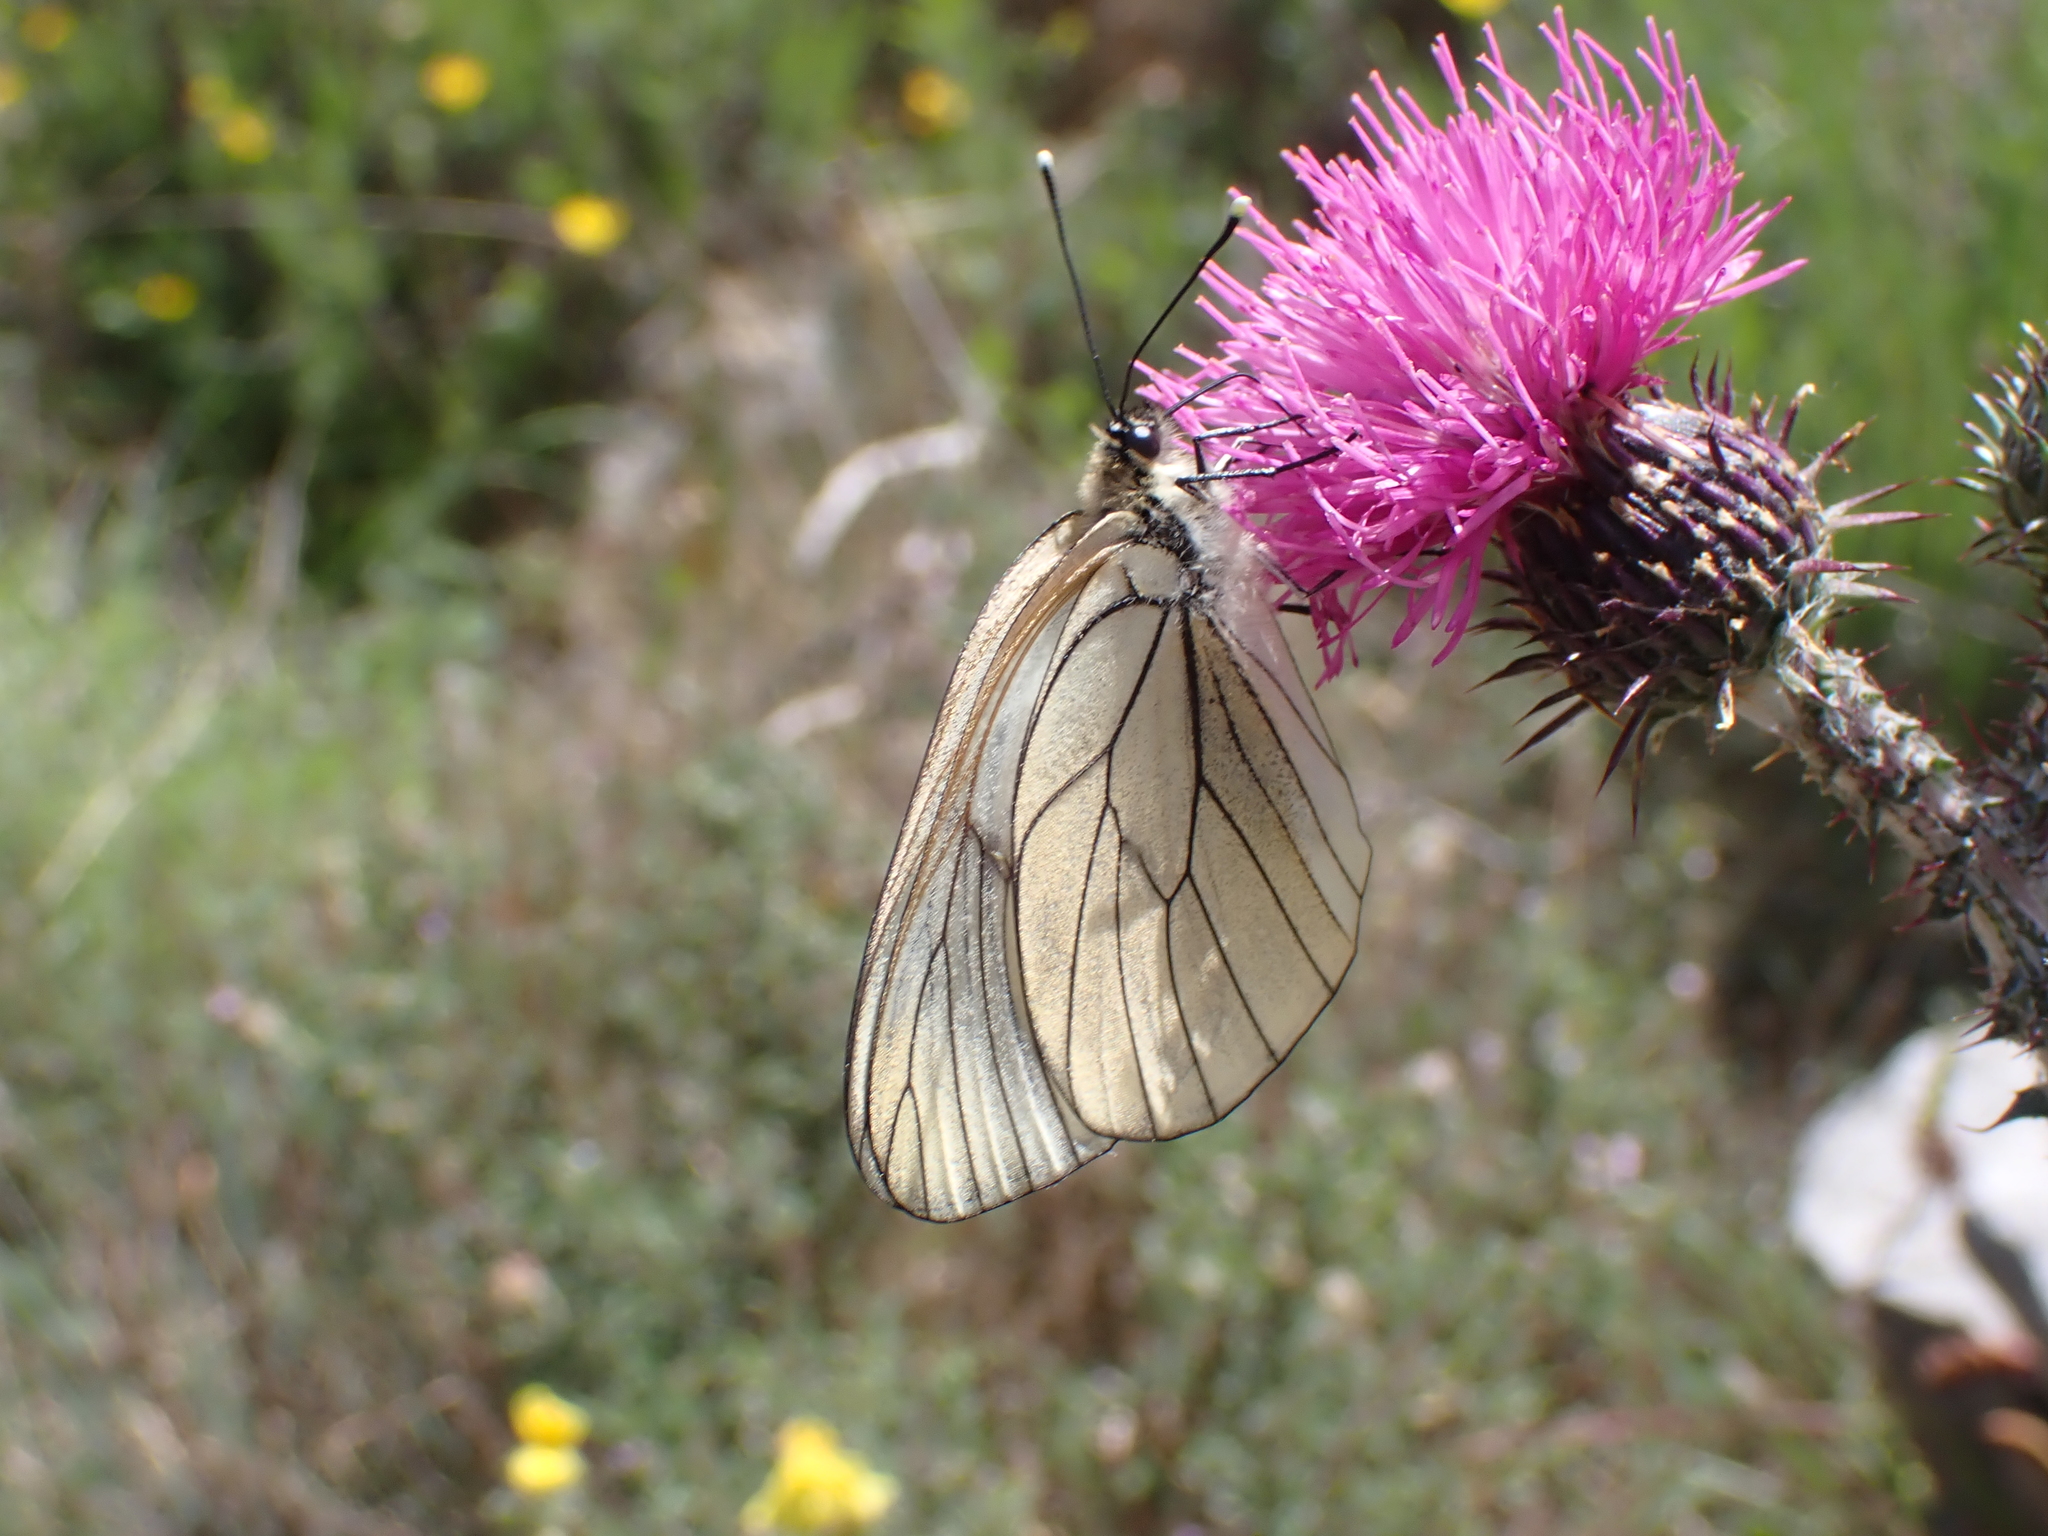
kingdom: Animalia
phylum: Arthropoda
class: Insecta
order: Lepidoptera
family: Pieridae
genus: Aporia
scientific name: Aporia crataegi
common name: Black-veined white
